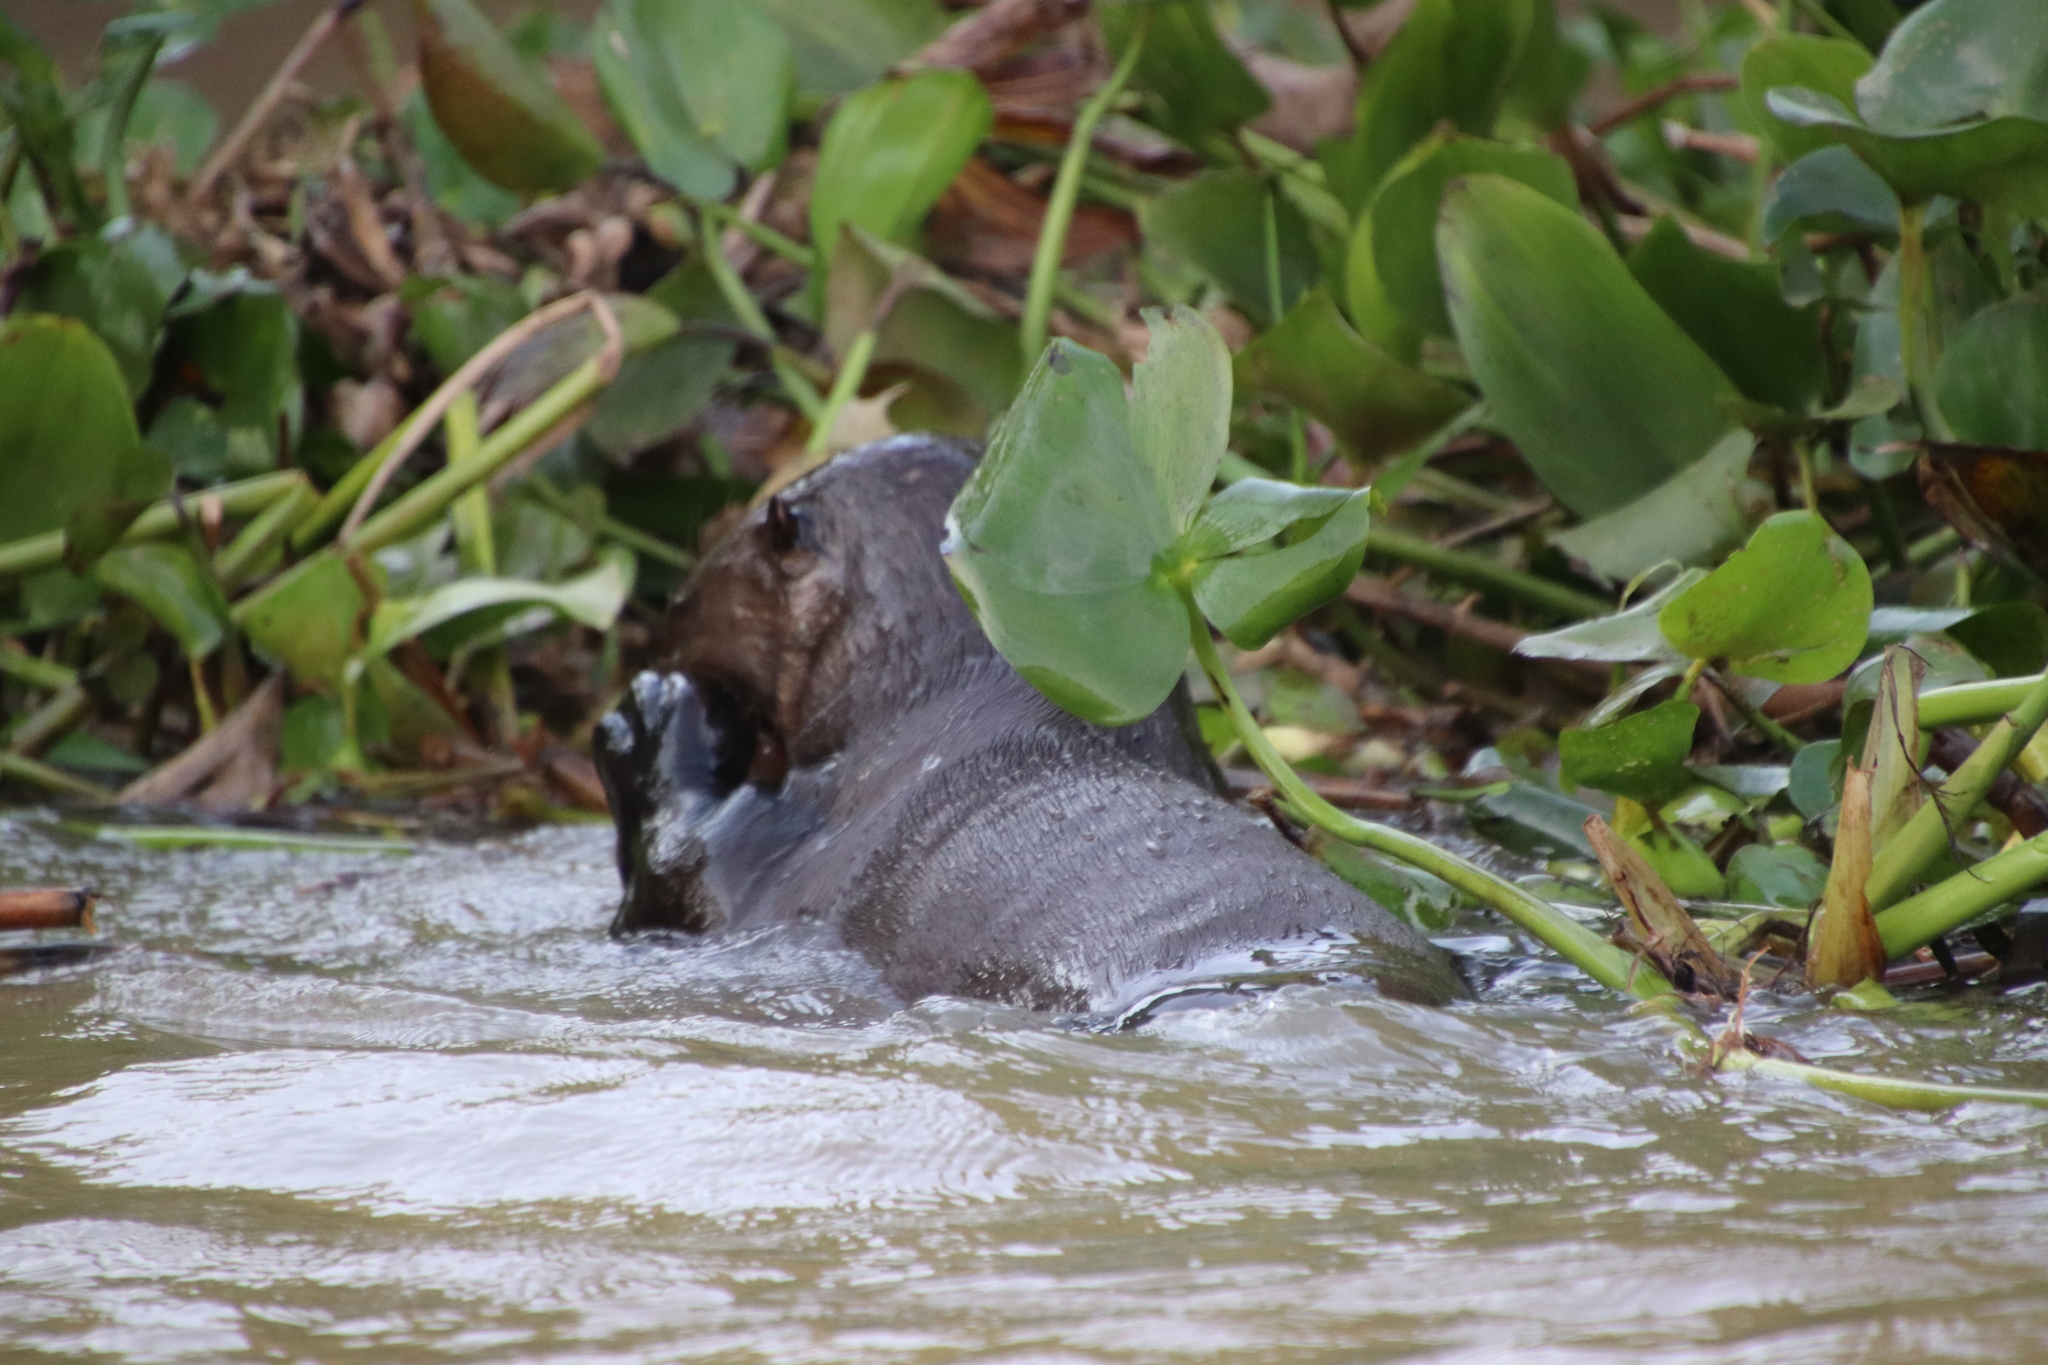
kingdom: Animalia
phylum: Chordata
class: Mammalia
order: Carnivora
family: Mustelidae
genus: Pteronura
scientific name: Pteronura brasiliensis
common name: Giant otter
